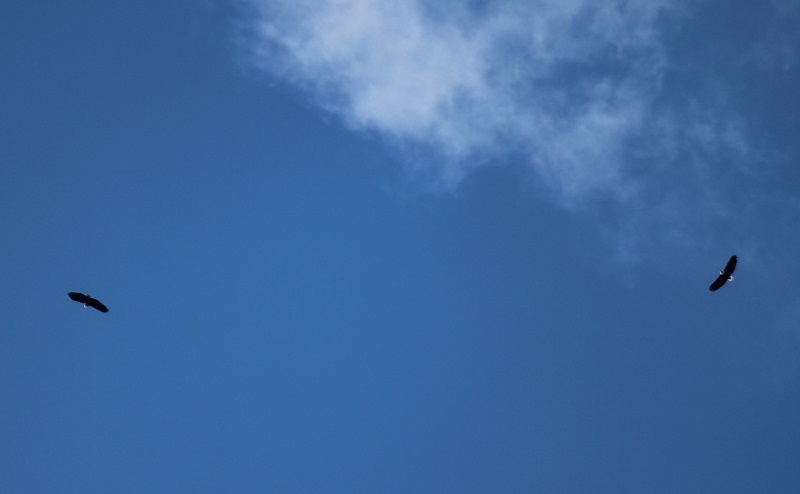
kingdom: Animalia
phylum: Chordata
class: Aves
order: Accipitriformes
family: Accipitridae
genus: Haliaeetus
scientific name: Haliaeetus vocifer
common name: African fish eagle
